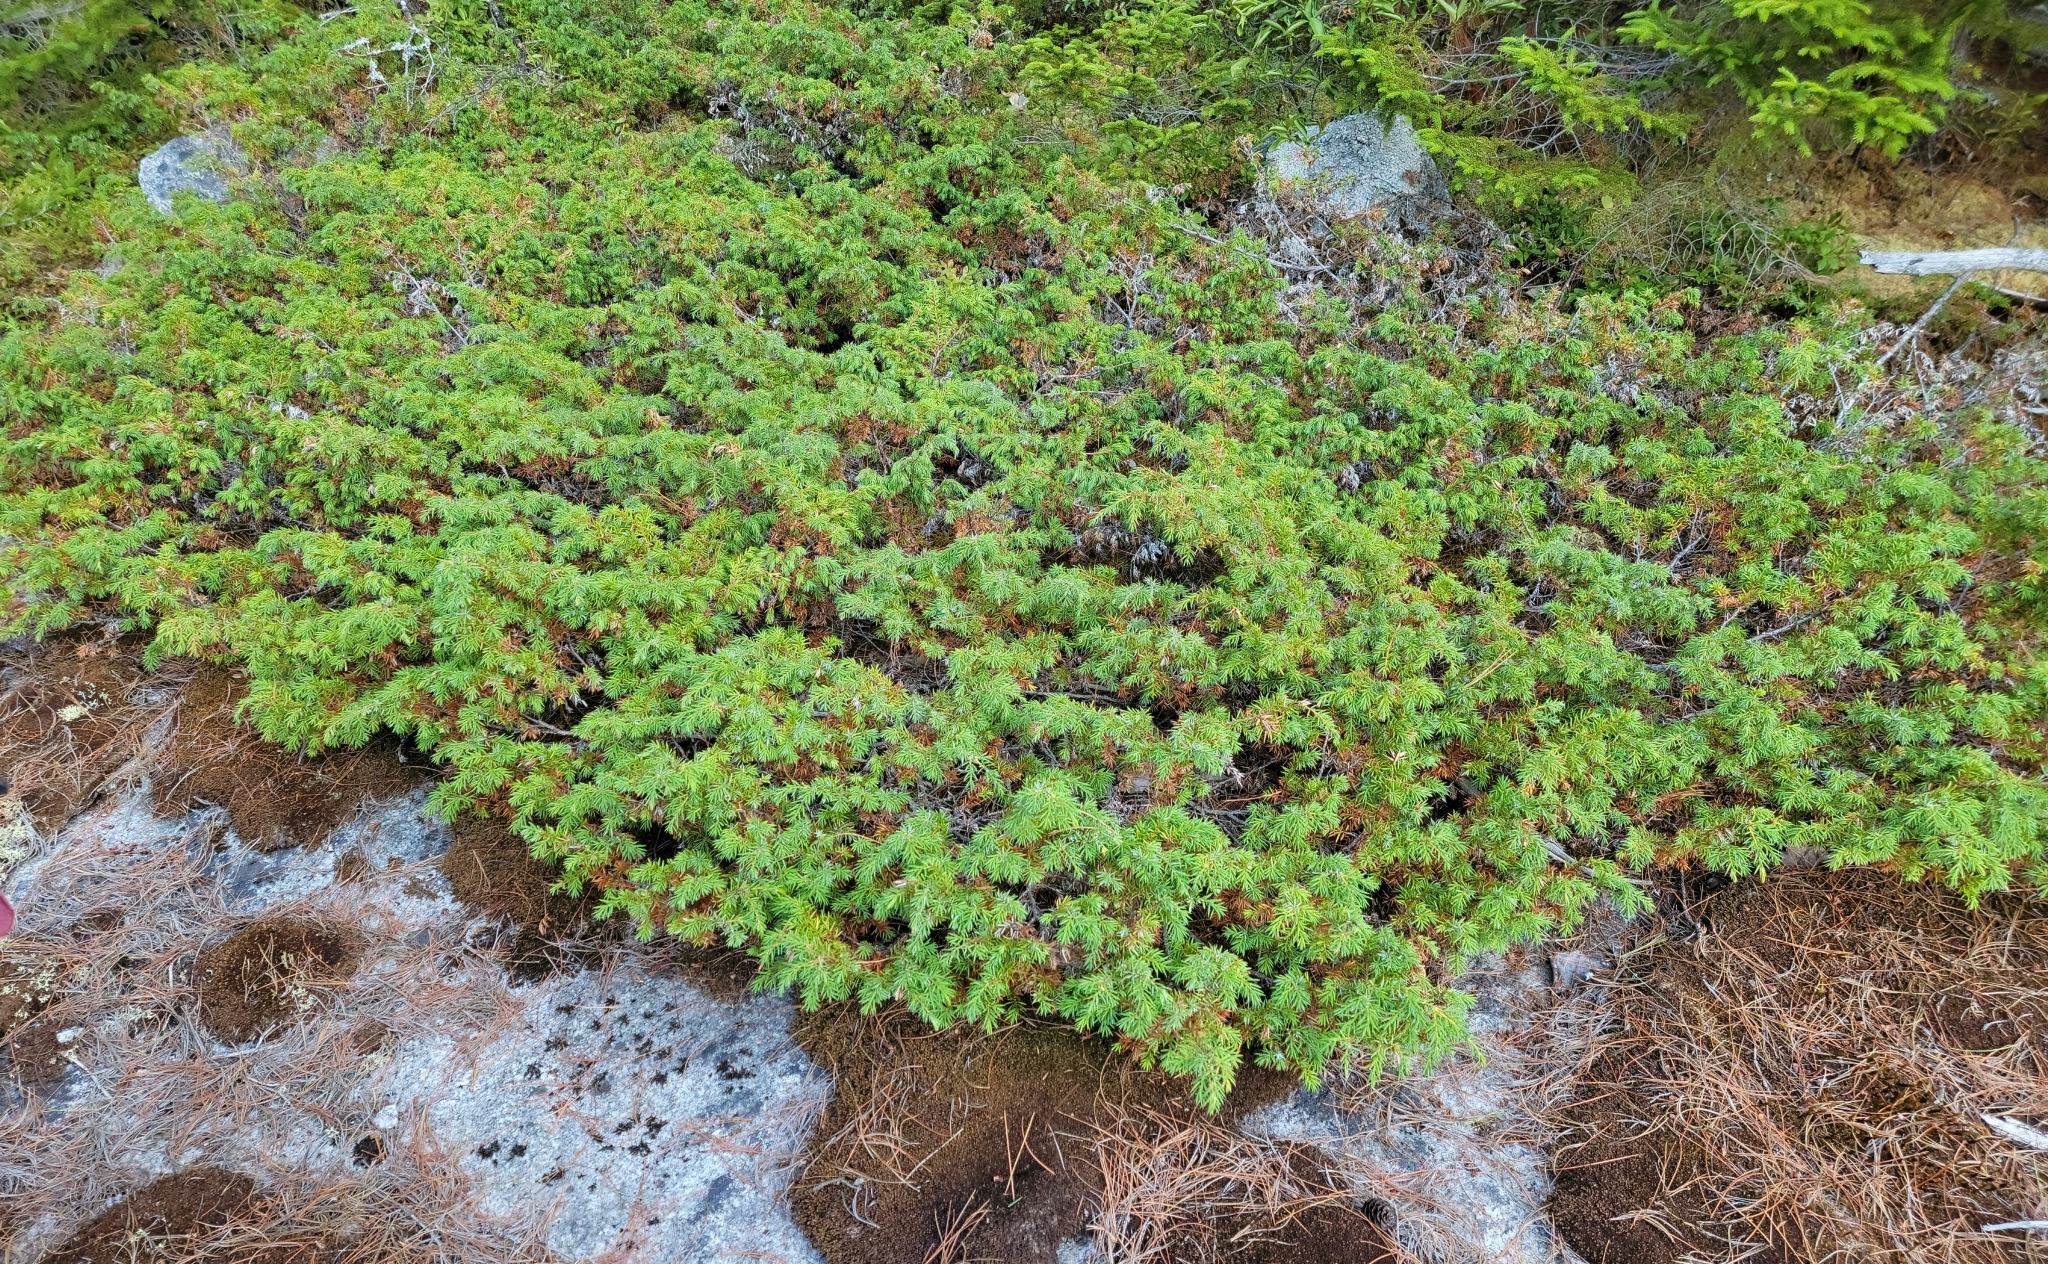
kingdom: Plantae
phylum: Tracheophyta
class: Pinopsida
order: Pinales
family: Cupressaceae
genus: Juniperus
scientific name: Juniperus communis
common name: Common juniper
